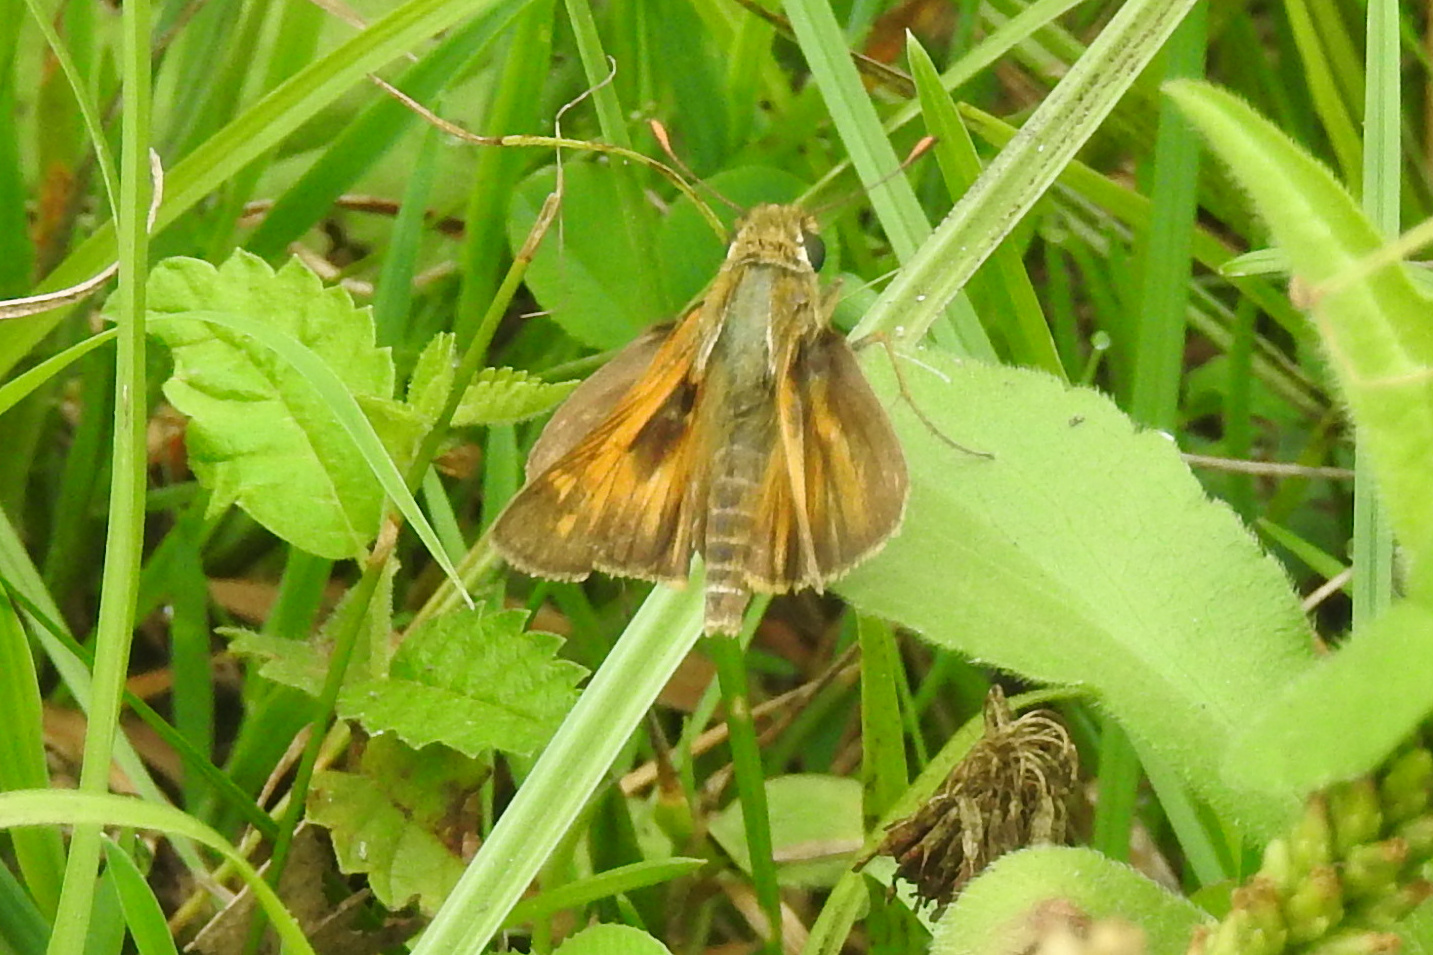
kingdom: Animalia
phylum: Arthropoda
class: Insecta
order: Lepidoptera
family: Hesperiidae
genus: Atalopedes
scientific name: Atalopedes
